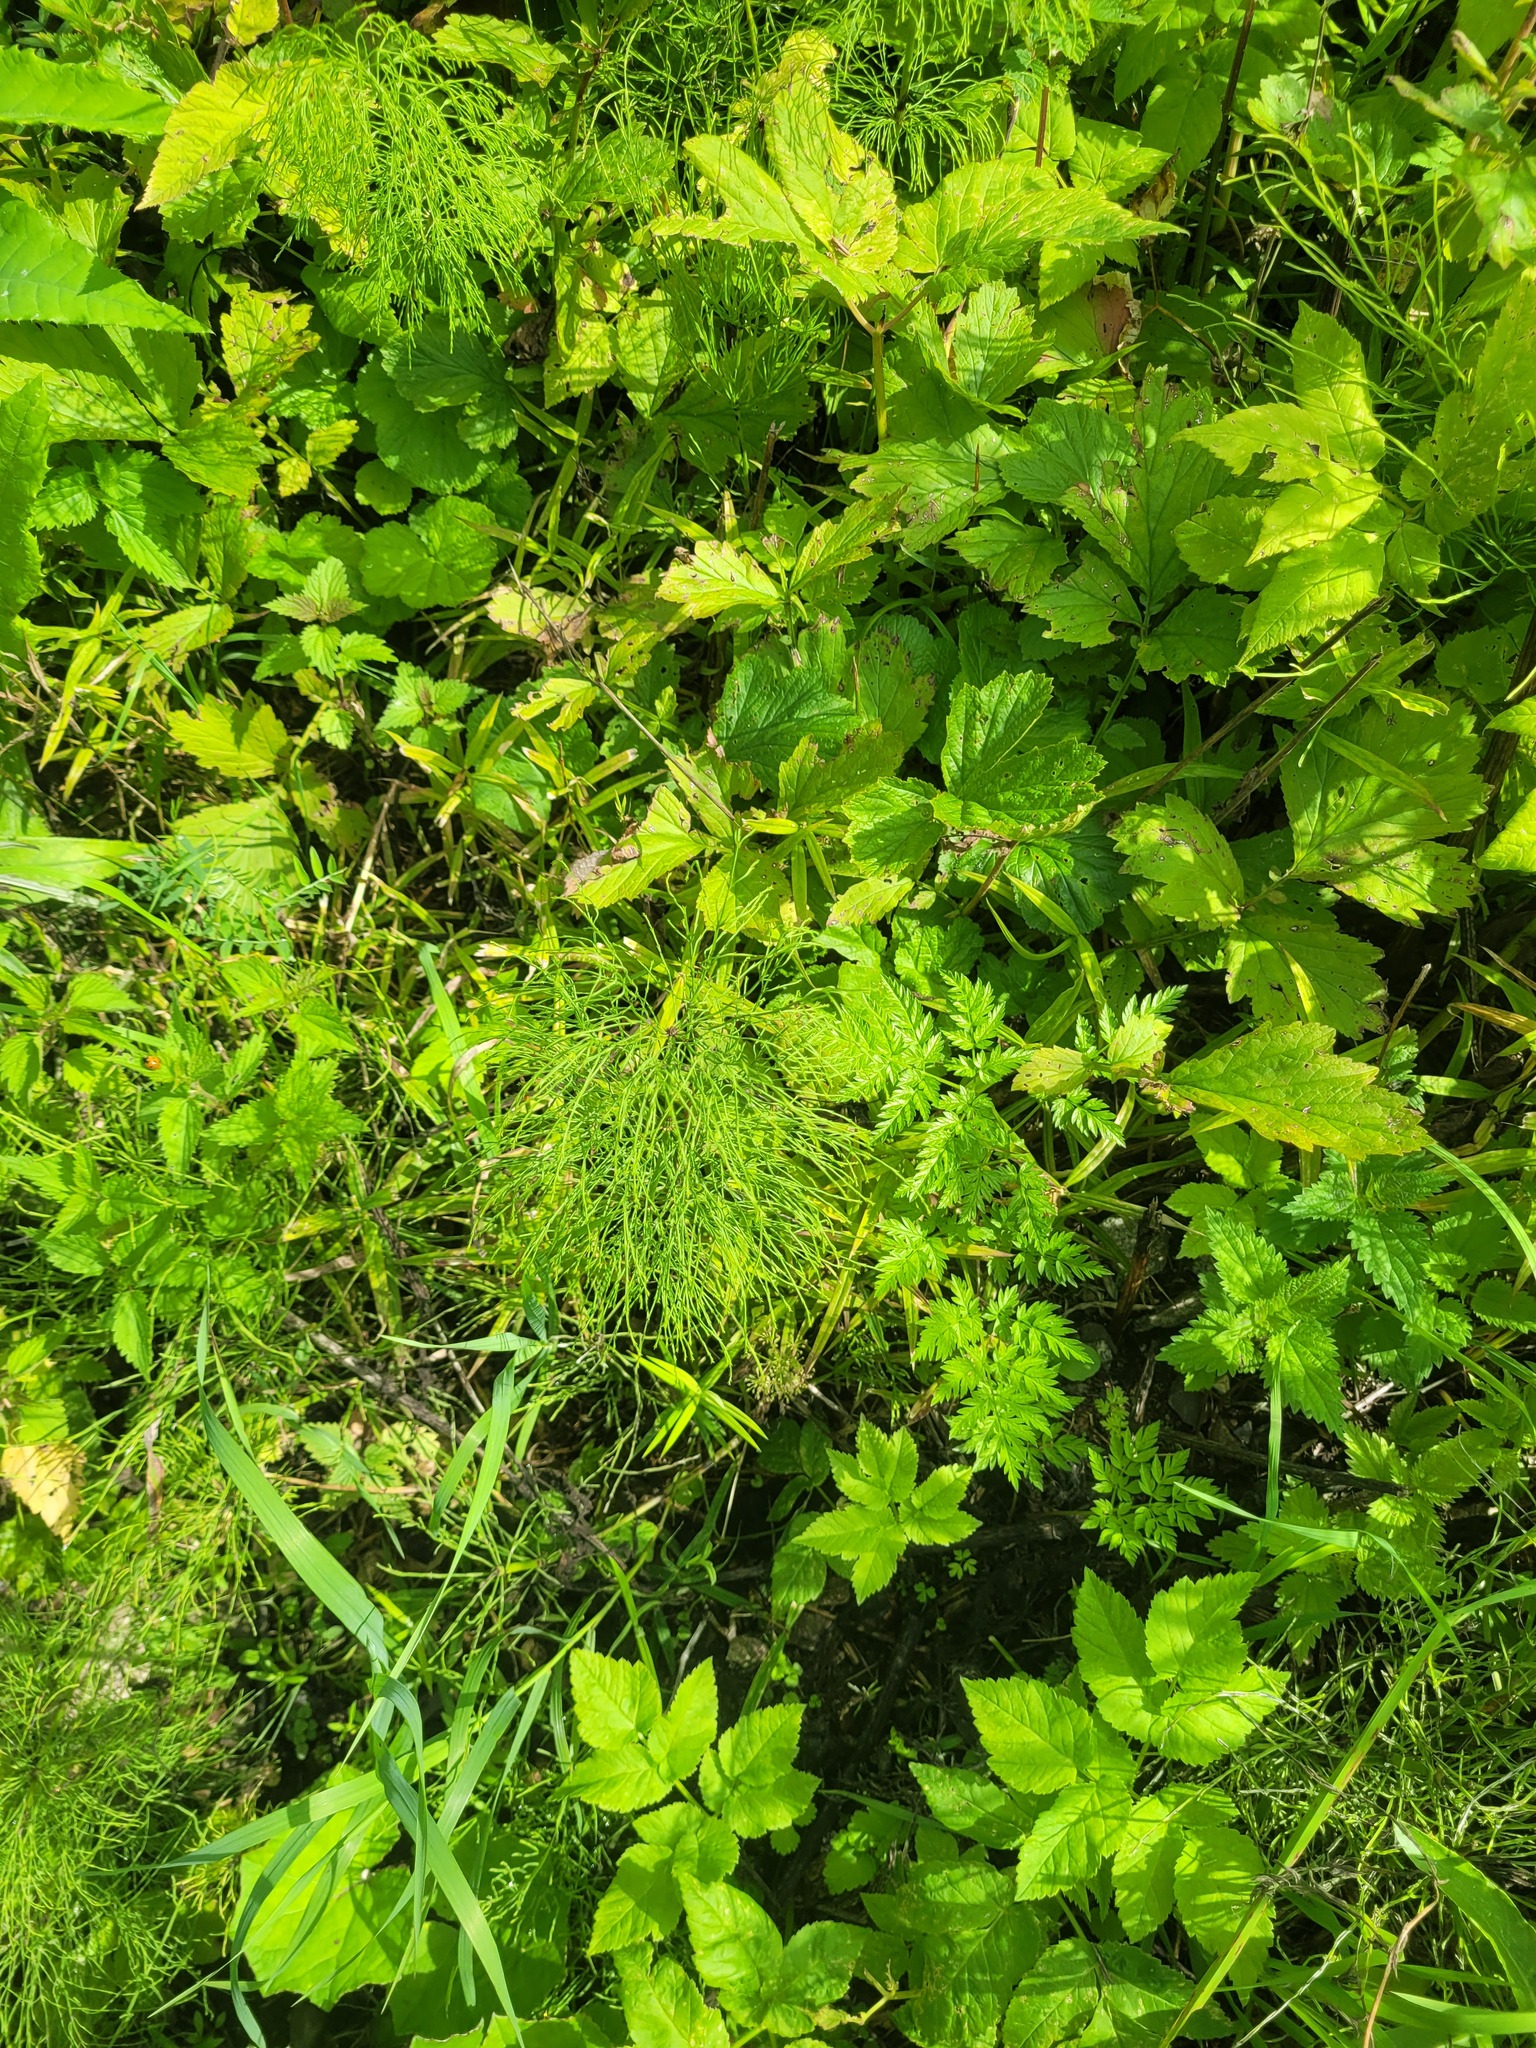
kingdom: Plantae
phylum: Tracheophyta
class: Polypodiopsida
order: Equisetales
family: Equisetaceae
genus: Equisetum
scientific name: Equisetum sylvaticum
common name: Wood horsetail
